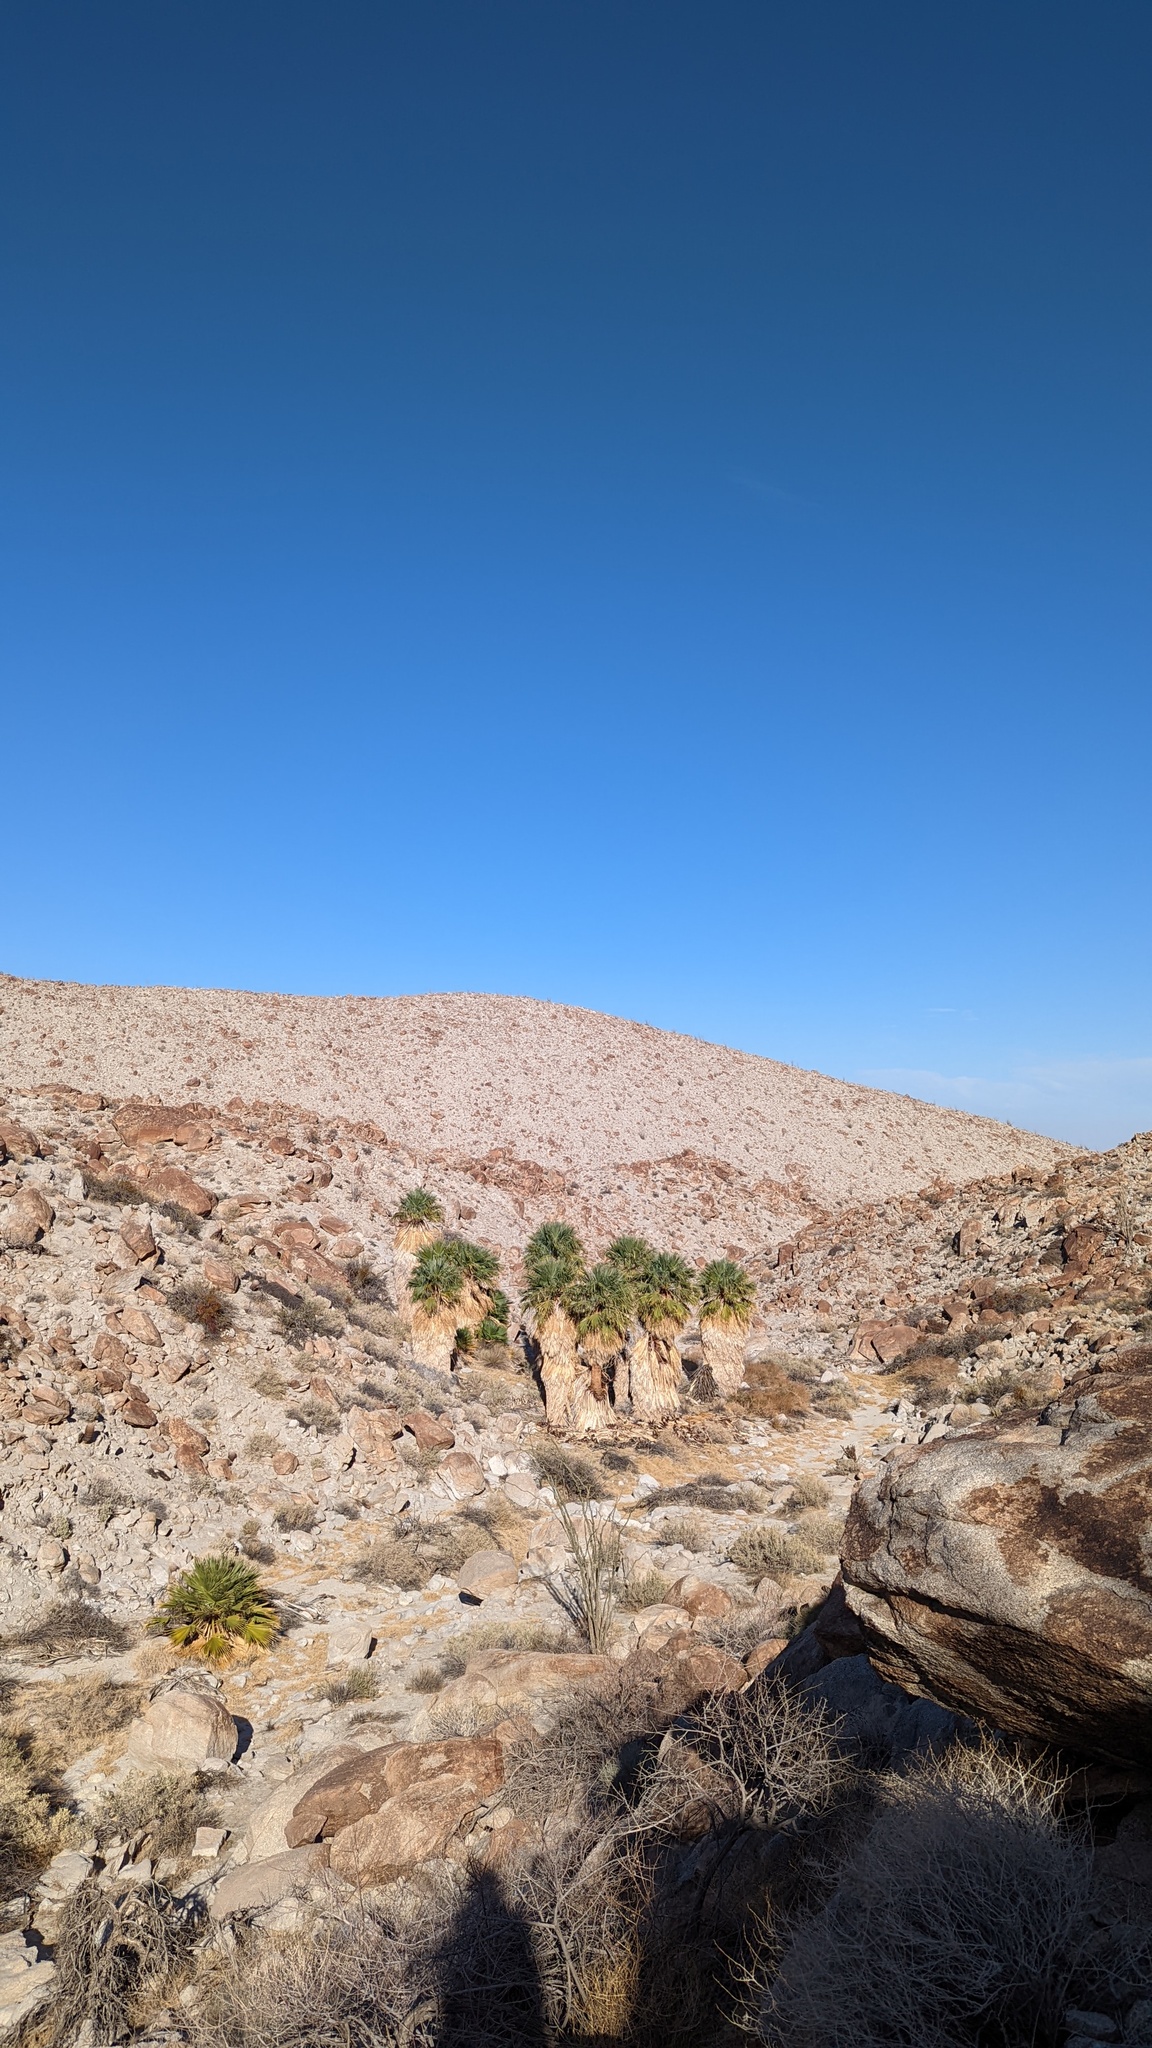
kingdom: Plantae
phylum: Tracheophyta
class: Liliopsida
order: Arecales
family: Arecaceae
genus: Washingtonia
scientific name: Washingtonia filifera
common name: California fan palm
